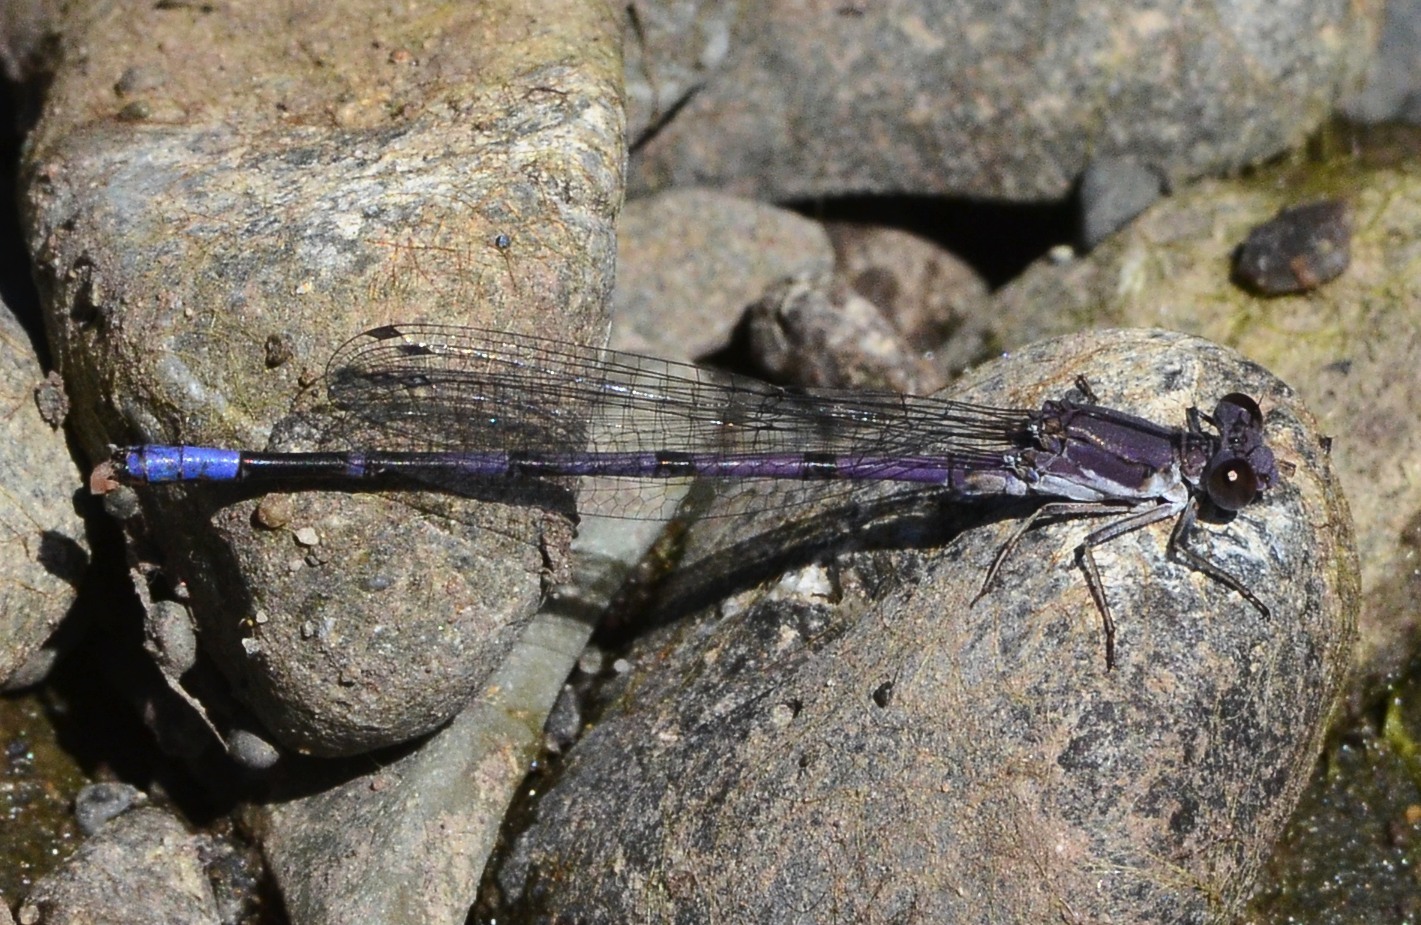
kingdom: Animalia
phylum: Arthropoda
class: Insecta
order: Odonata
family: Coenagrionidae
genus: Argia
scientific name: Argia emma
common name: Emma's dancer
